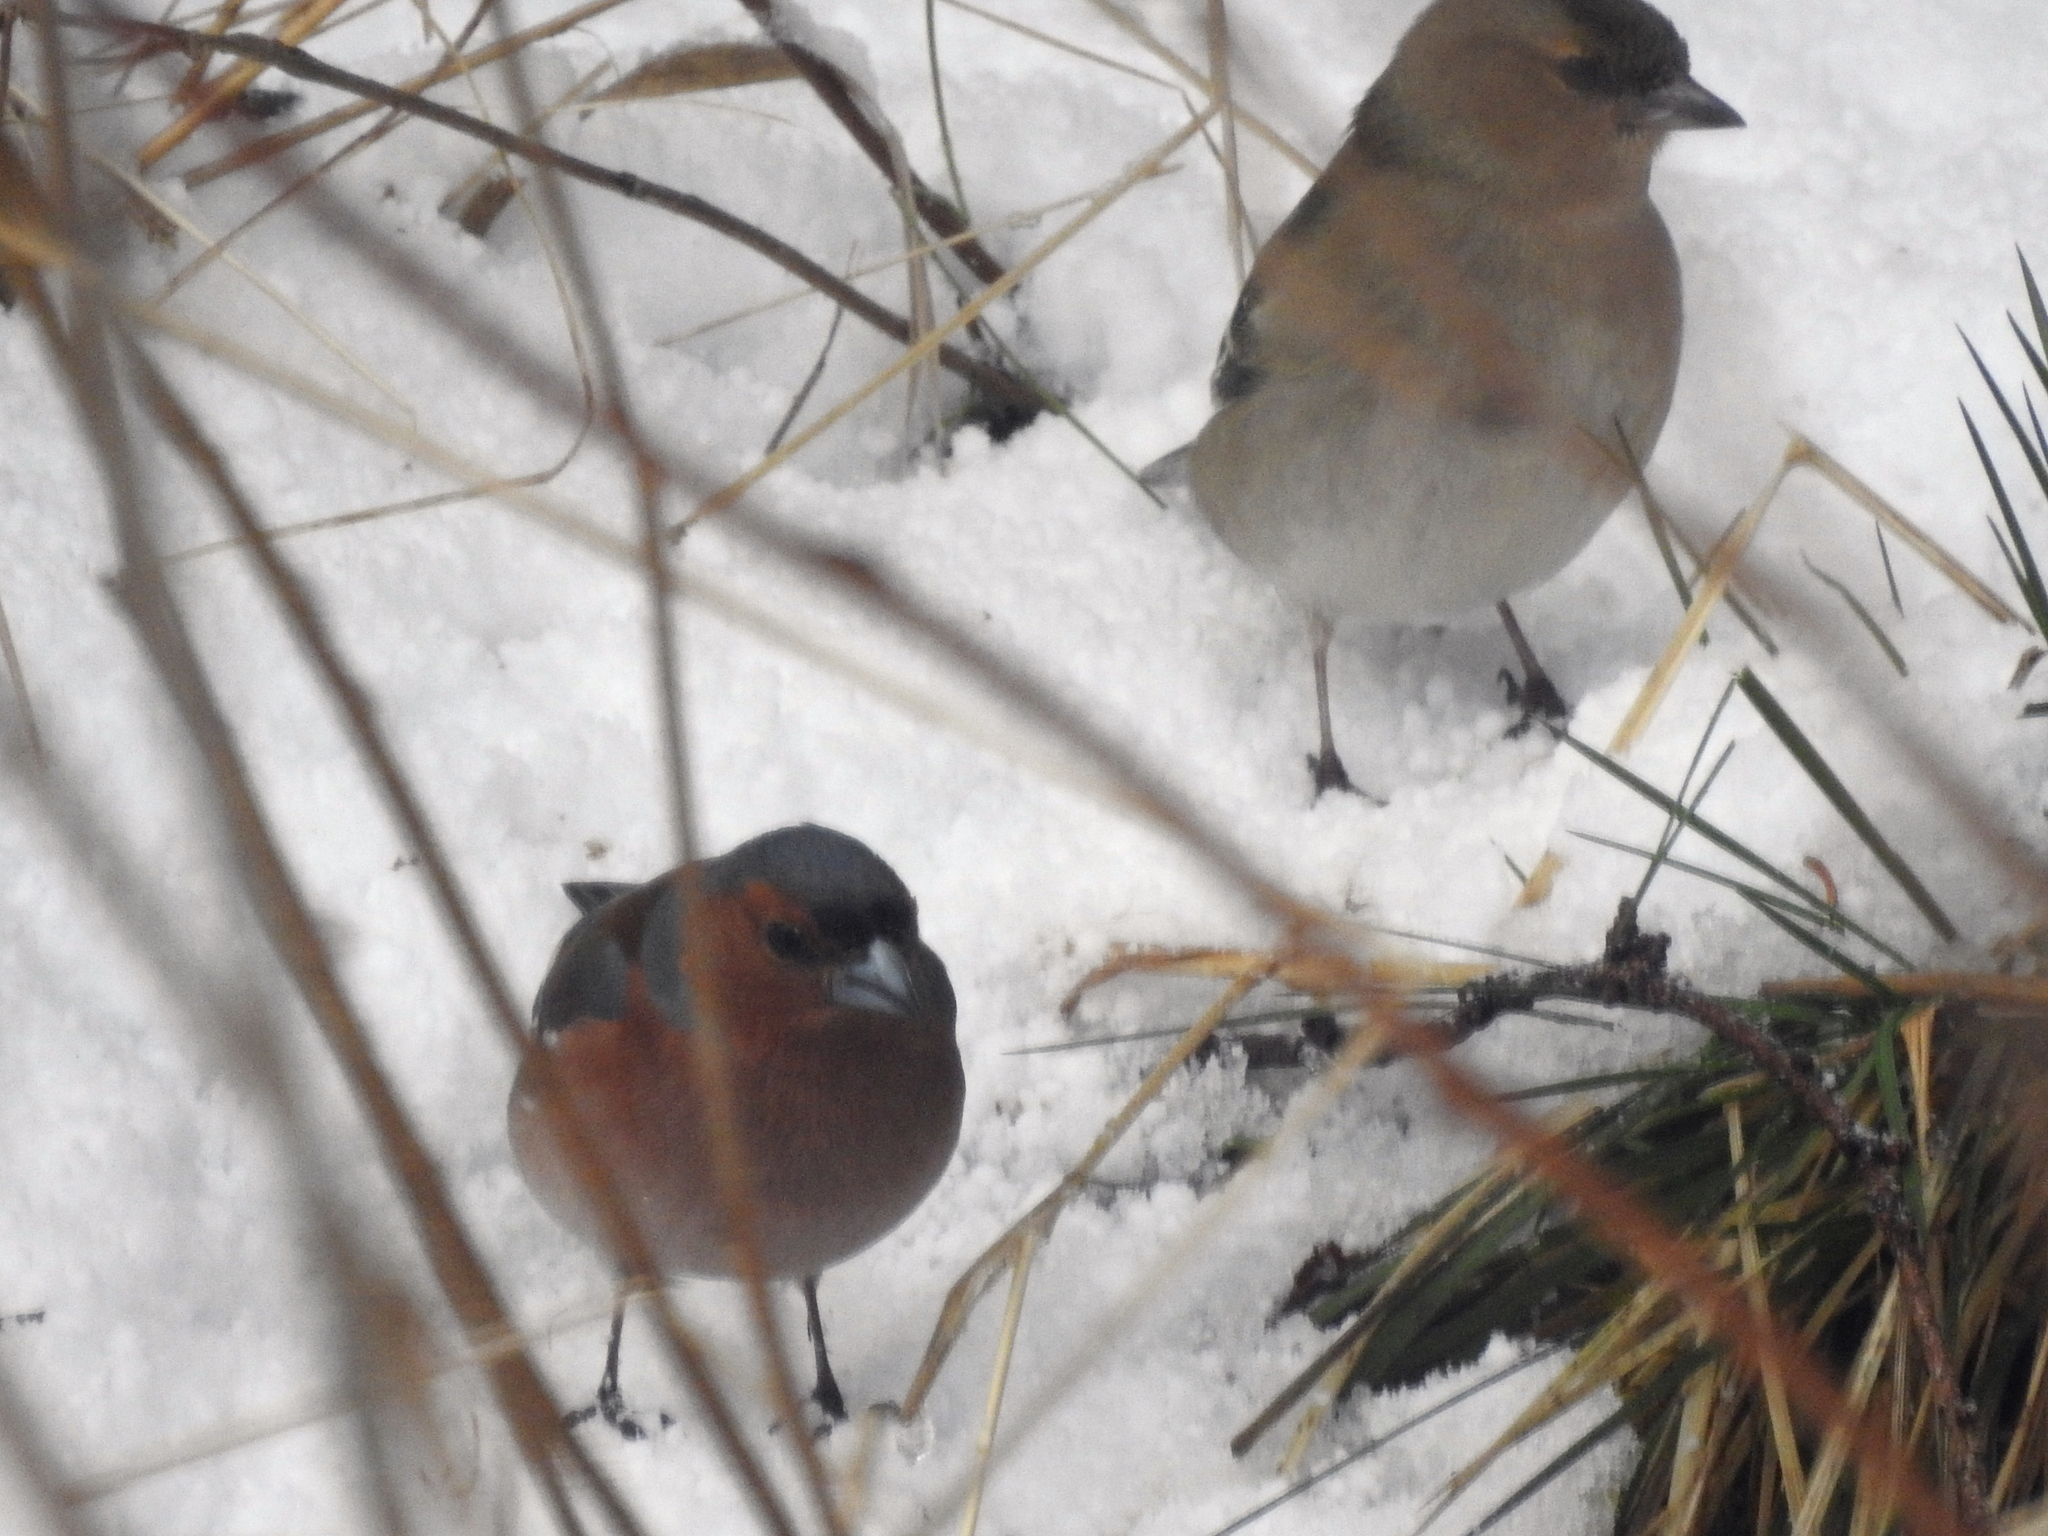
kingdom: Animalia
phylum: Chordata
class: Aves
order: Passeriformes
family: Fringillidae
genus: Fringilla
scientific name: Fringilla coelebs
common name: Common chaffinch
